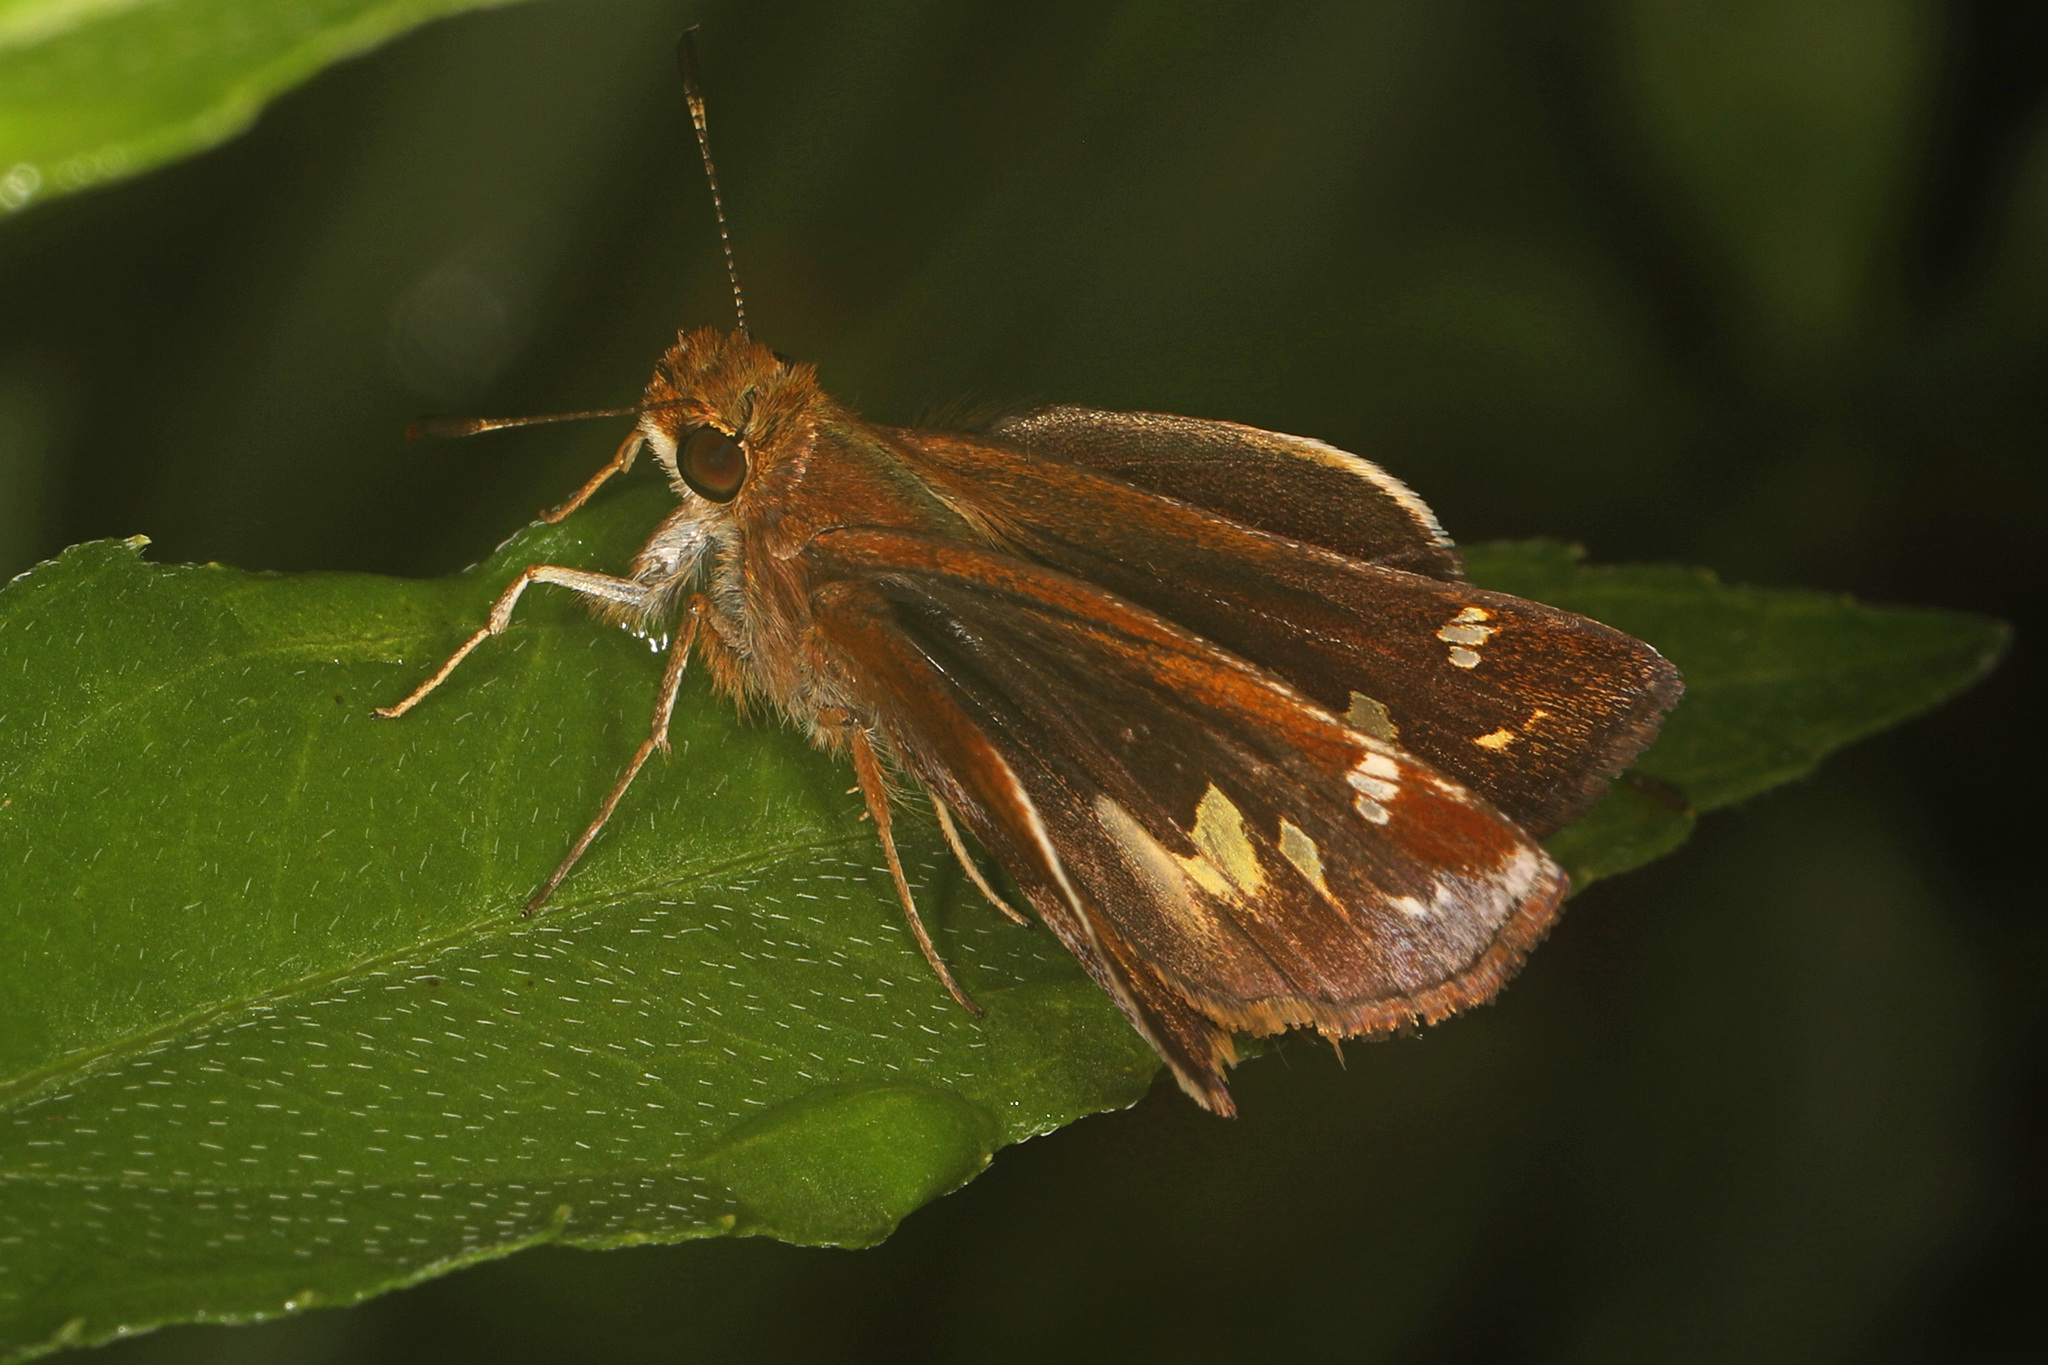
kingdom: Animalia
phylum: Arthropoda
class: Insecta
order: Lepidoptera
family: Hesperiidae
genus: Lon
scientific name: Lon zabulon
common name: Zabulon skipper
